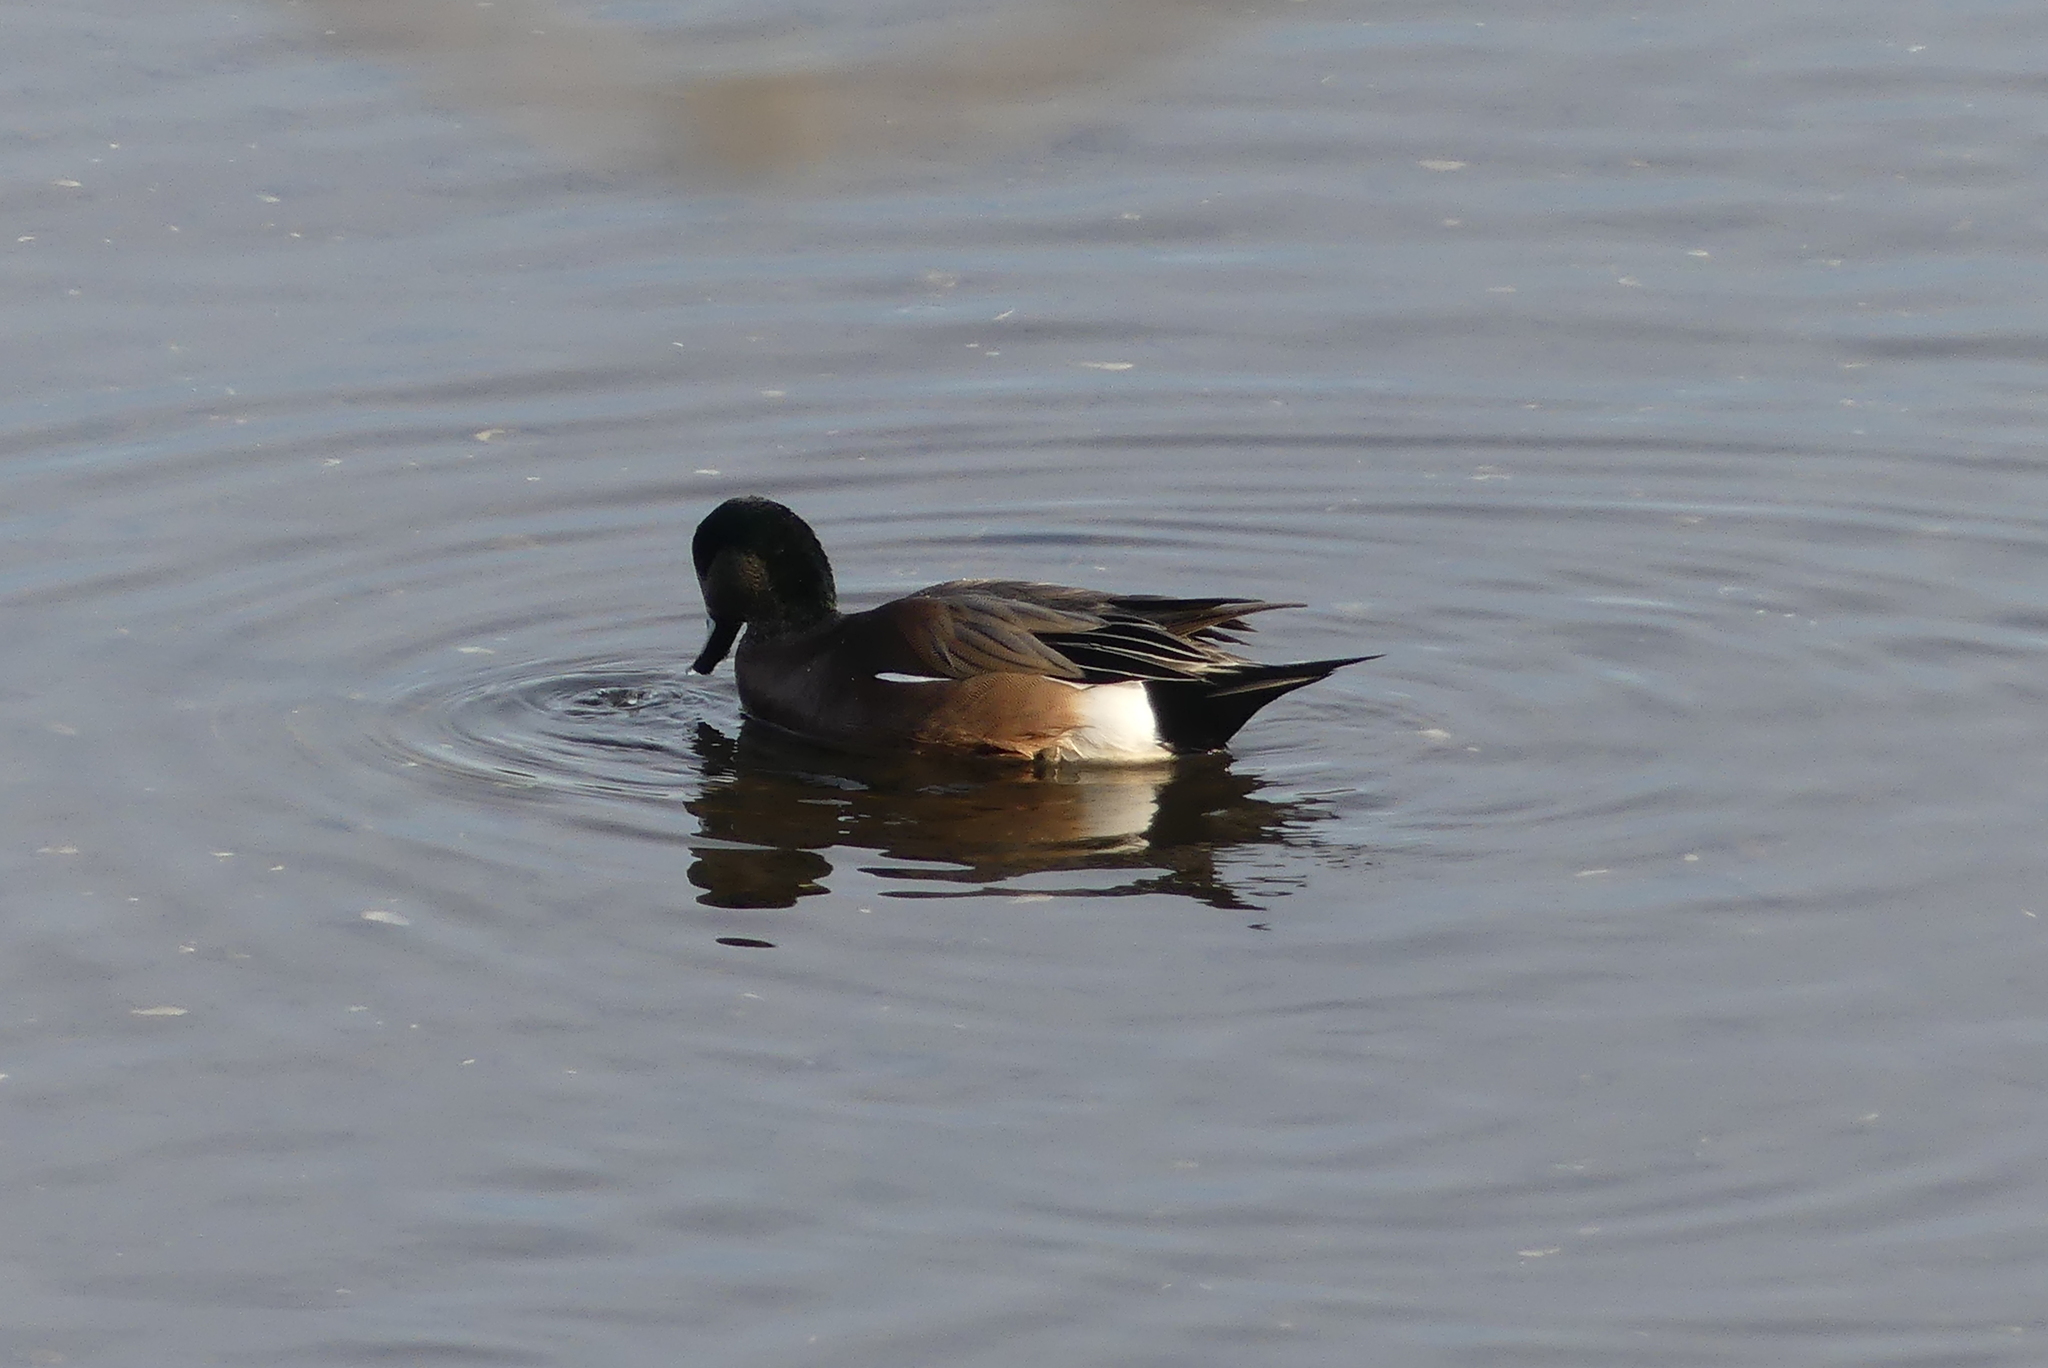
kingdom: Animalia
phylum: Chordata
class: Aves
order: Anseriformes
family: Anatidae
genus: Mareca
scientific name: Mareca americana
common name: American wigeon
